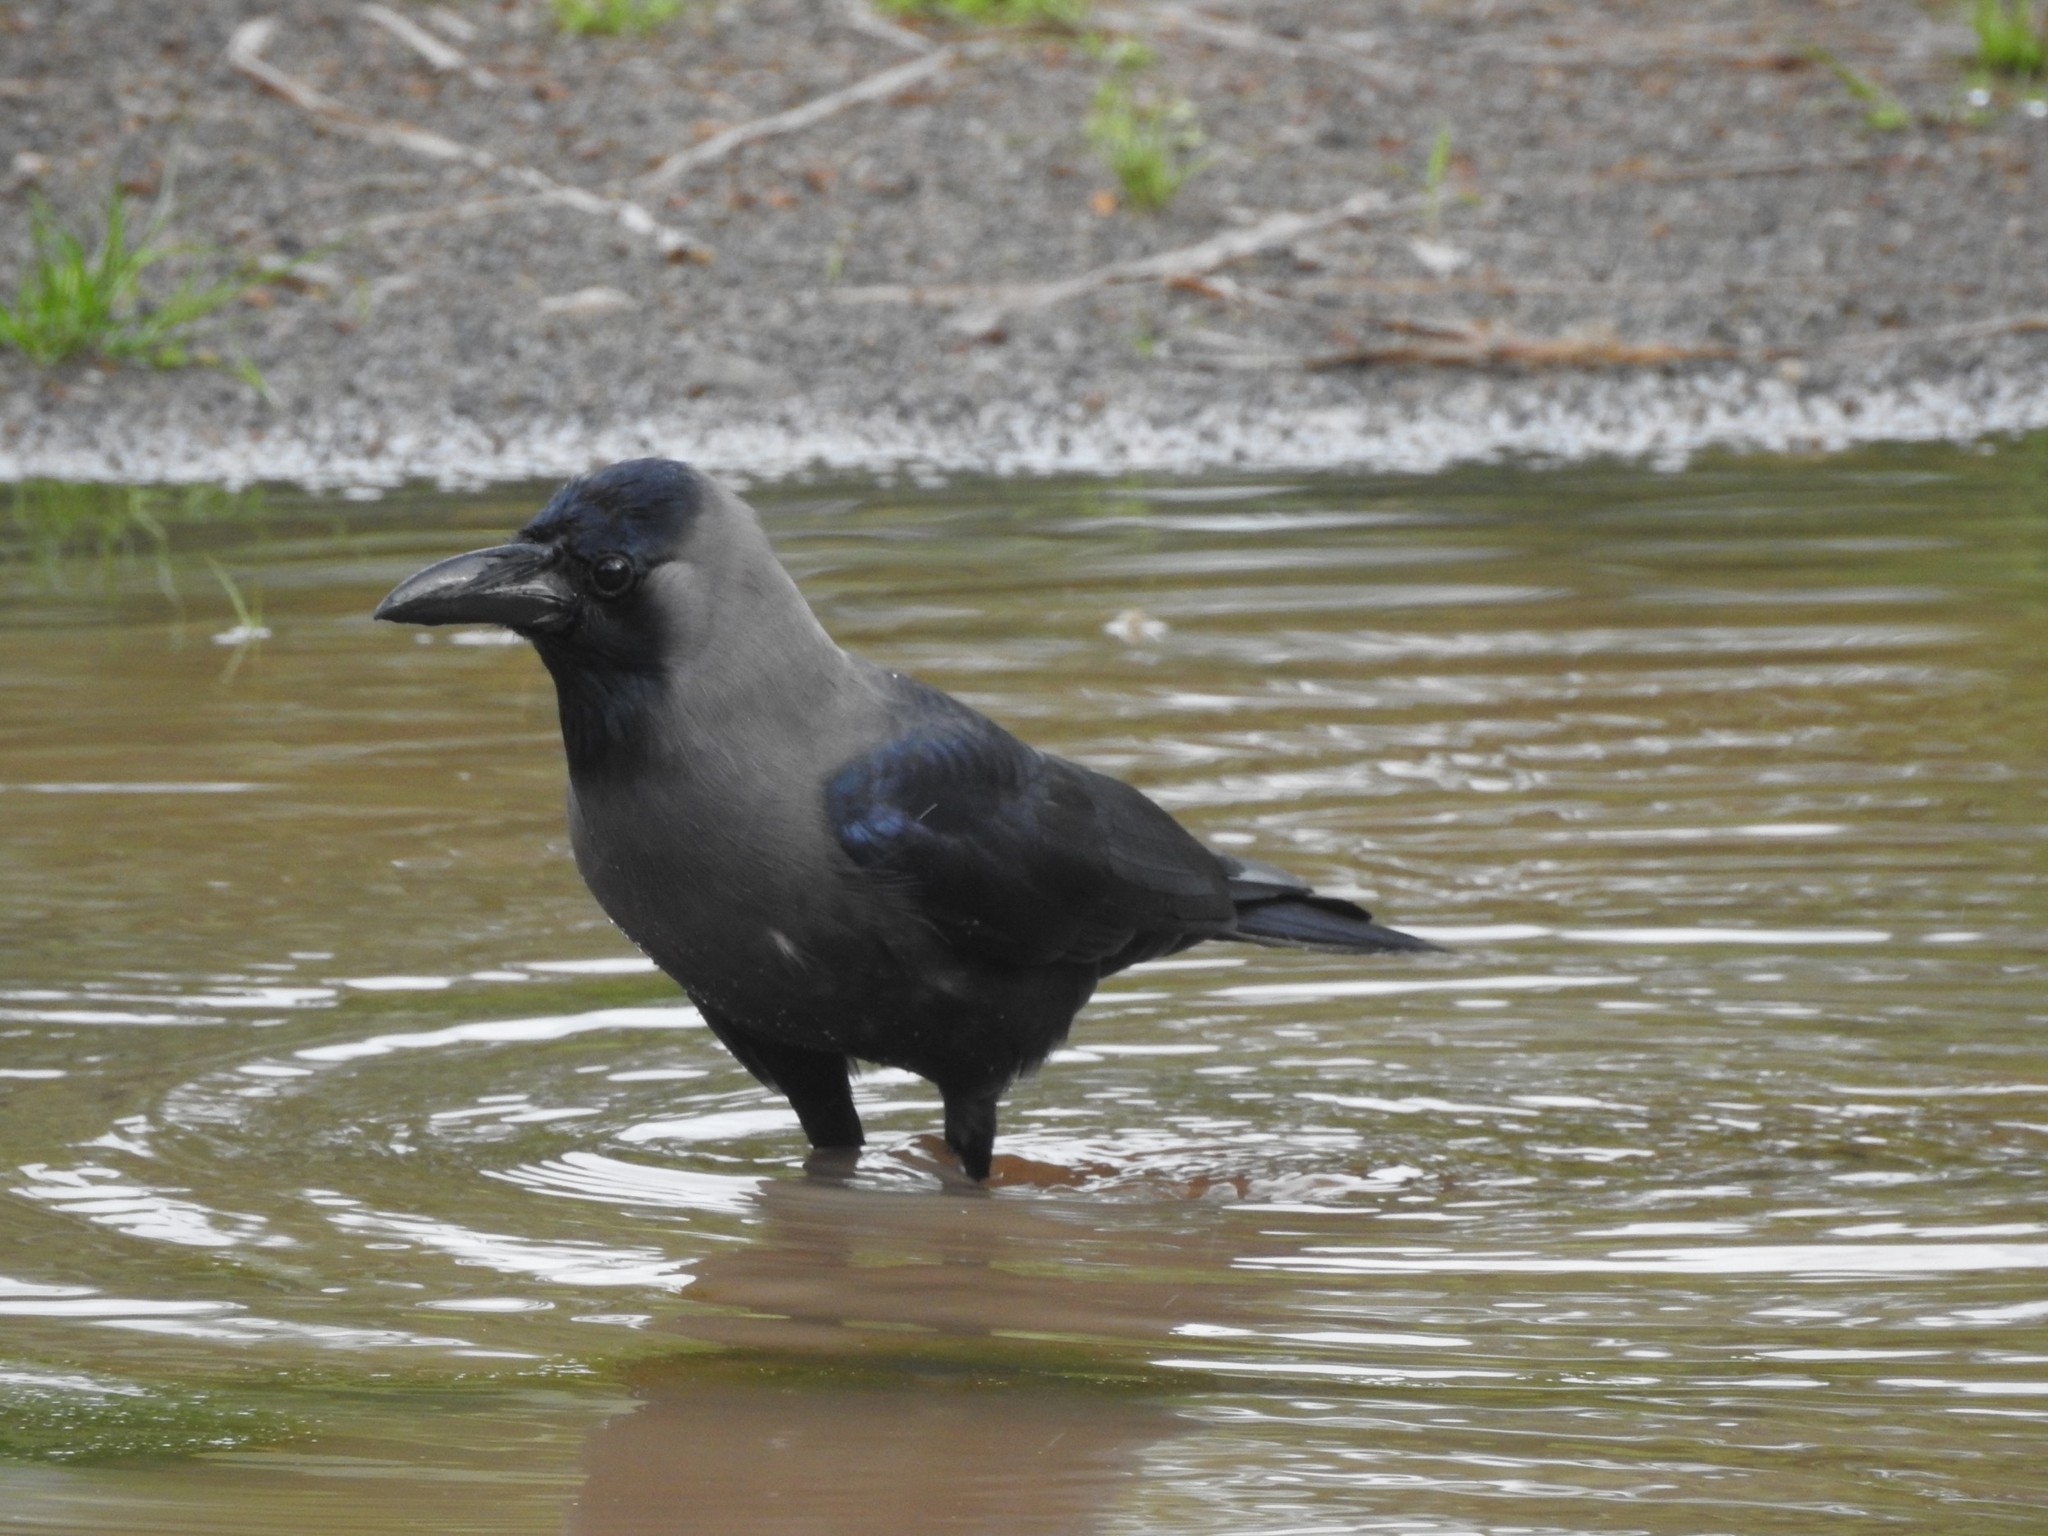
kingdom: Animalia
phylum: Chordata
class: Aves
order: Passeriformes
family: Corvidae
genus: Corvus
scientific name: Corvus splendens
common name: House crow
